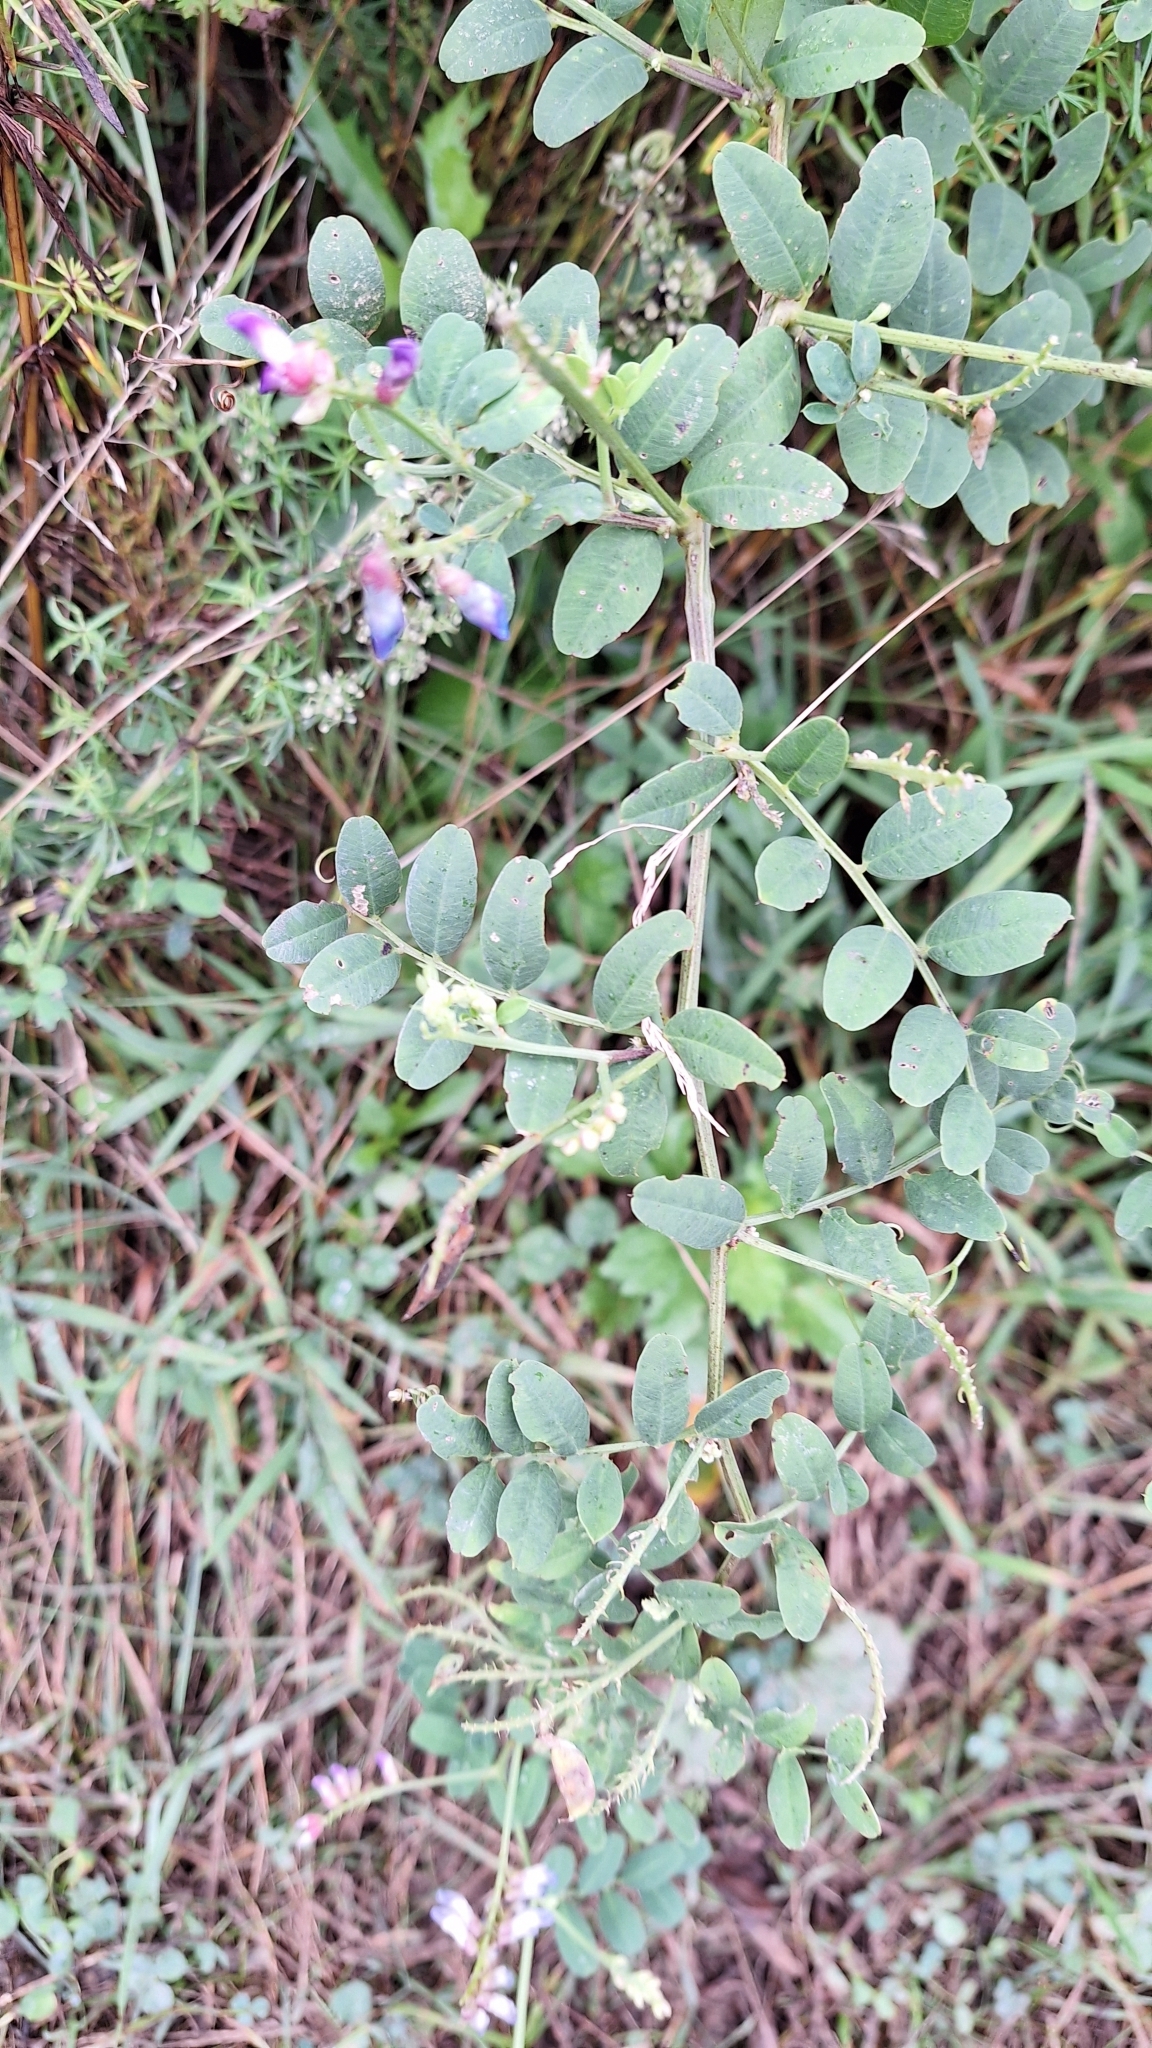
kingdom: Plantae
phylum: Tracheophyta
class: Magnoliopsida
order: Fabales
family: Fabaceae
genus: Vicia
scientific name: Vicia amurensis
